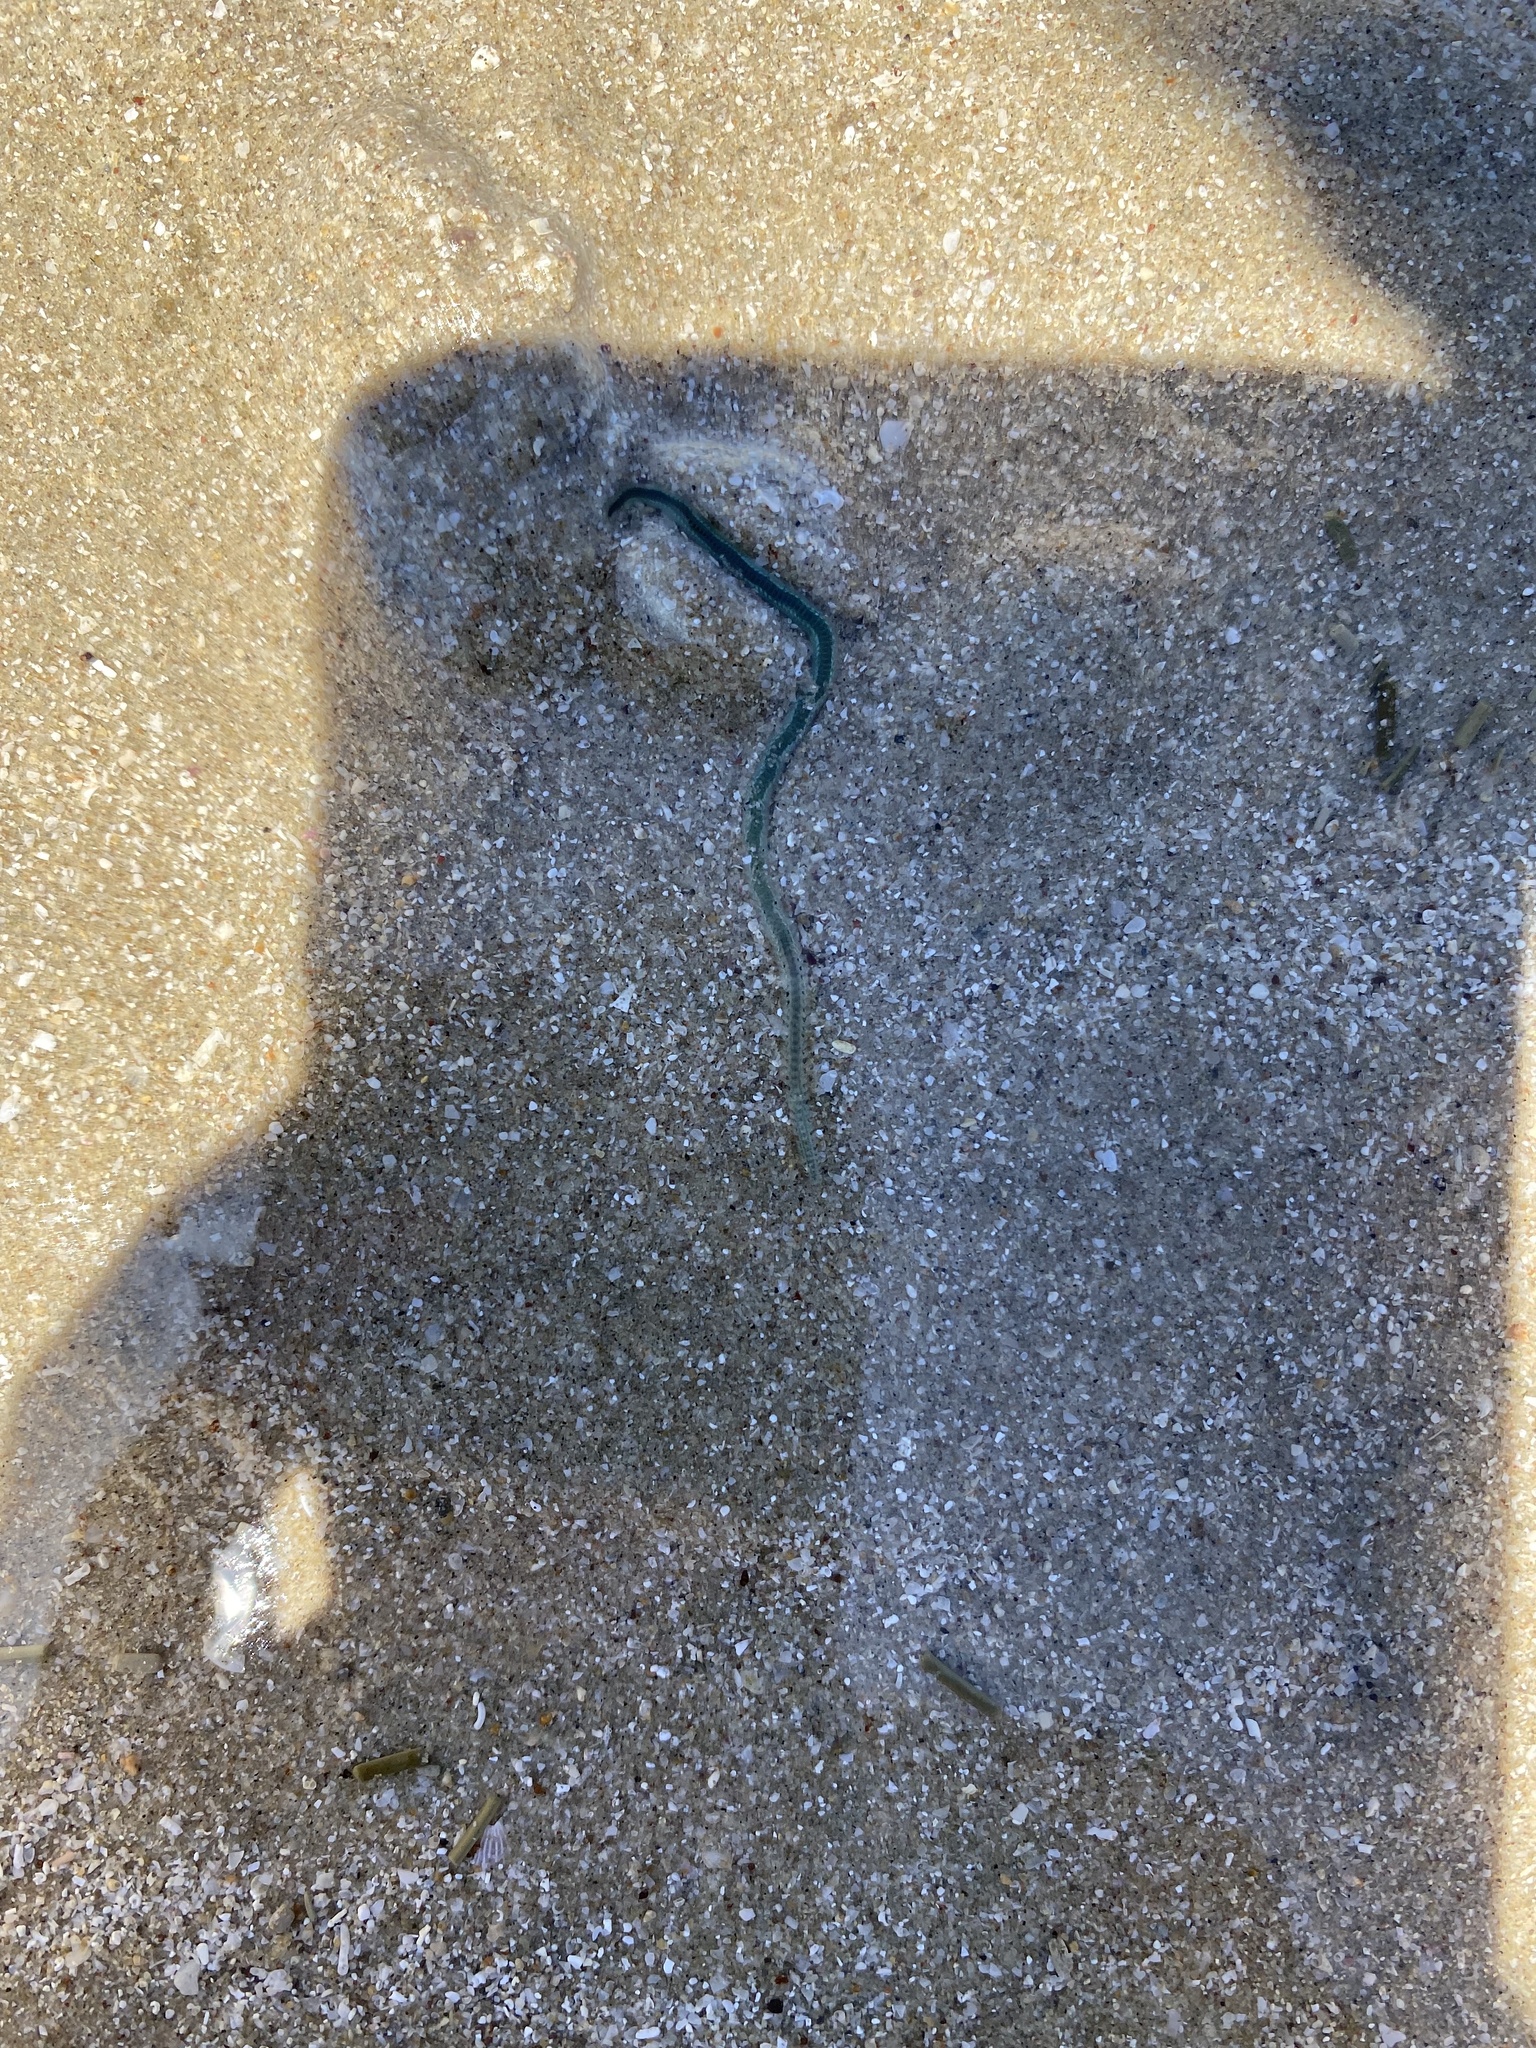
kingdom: Animalia
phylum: Annelida
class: Polychaeta
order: Phyllodocida
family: Phyllodocidae
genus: Phyllodoce
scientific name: Phyllodoce tuberculosa
